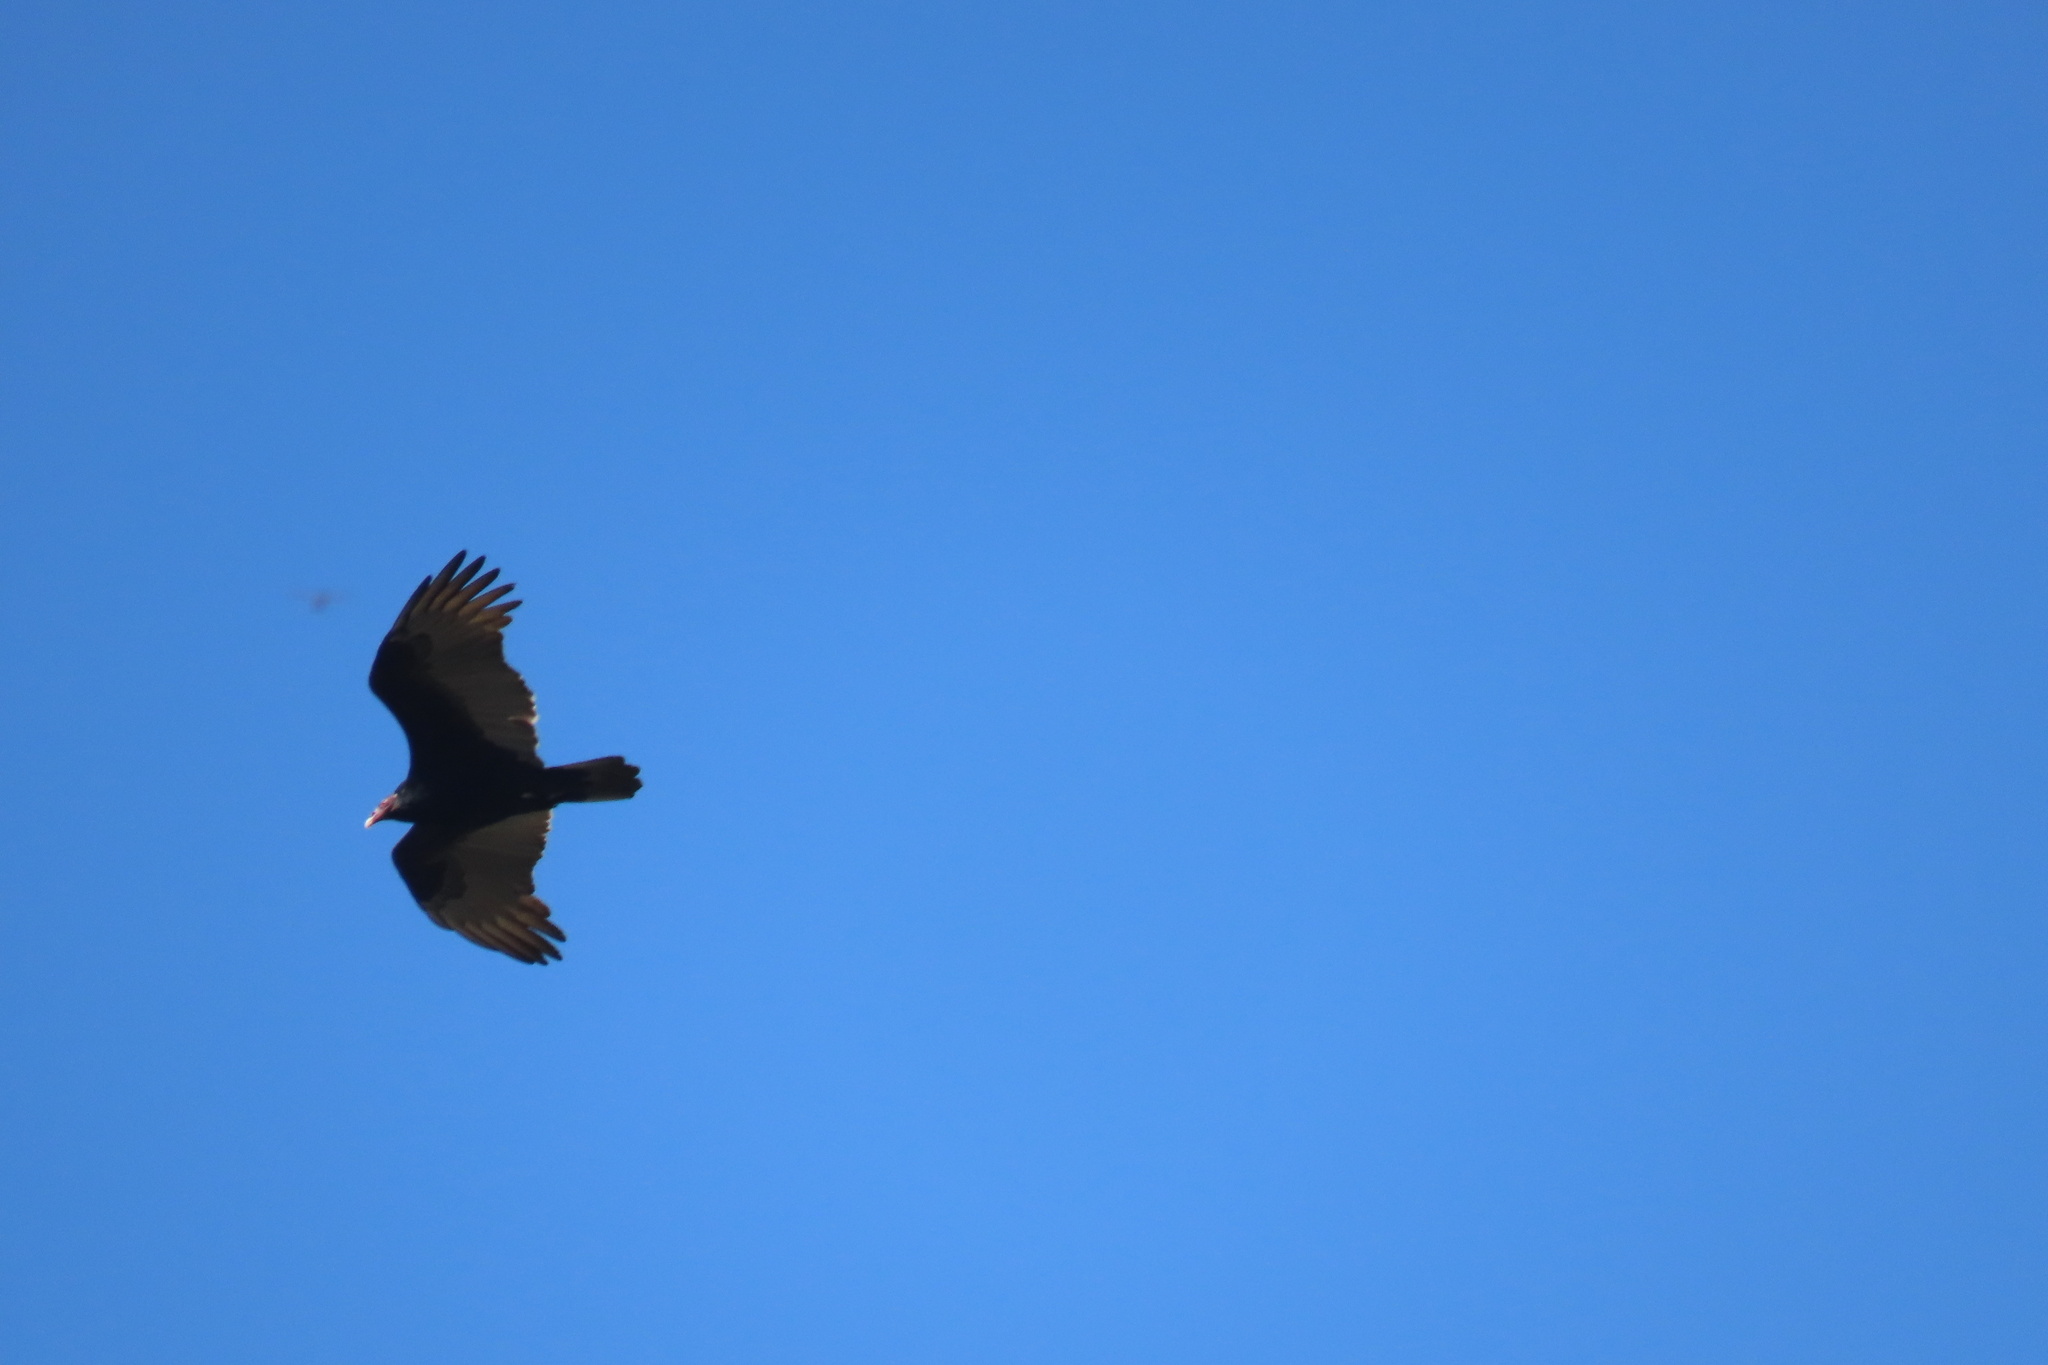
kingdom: Animalia
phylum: Chordata
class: Aves
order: Accipitriformes
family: Cathartidae
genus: Cathartes
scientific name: Cathartes aura
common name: Turkey vulture
